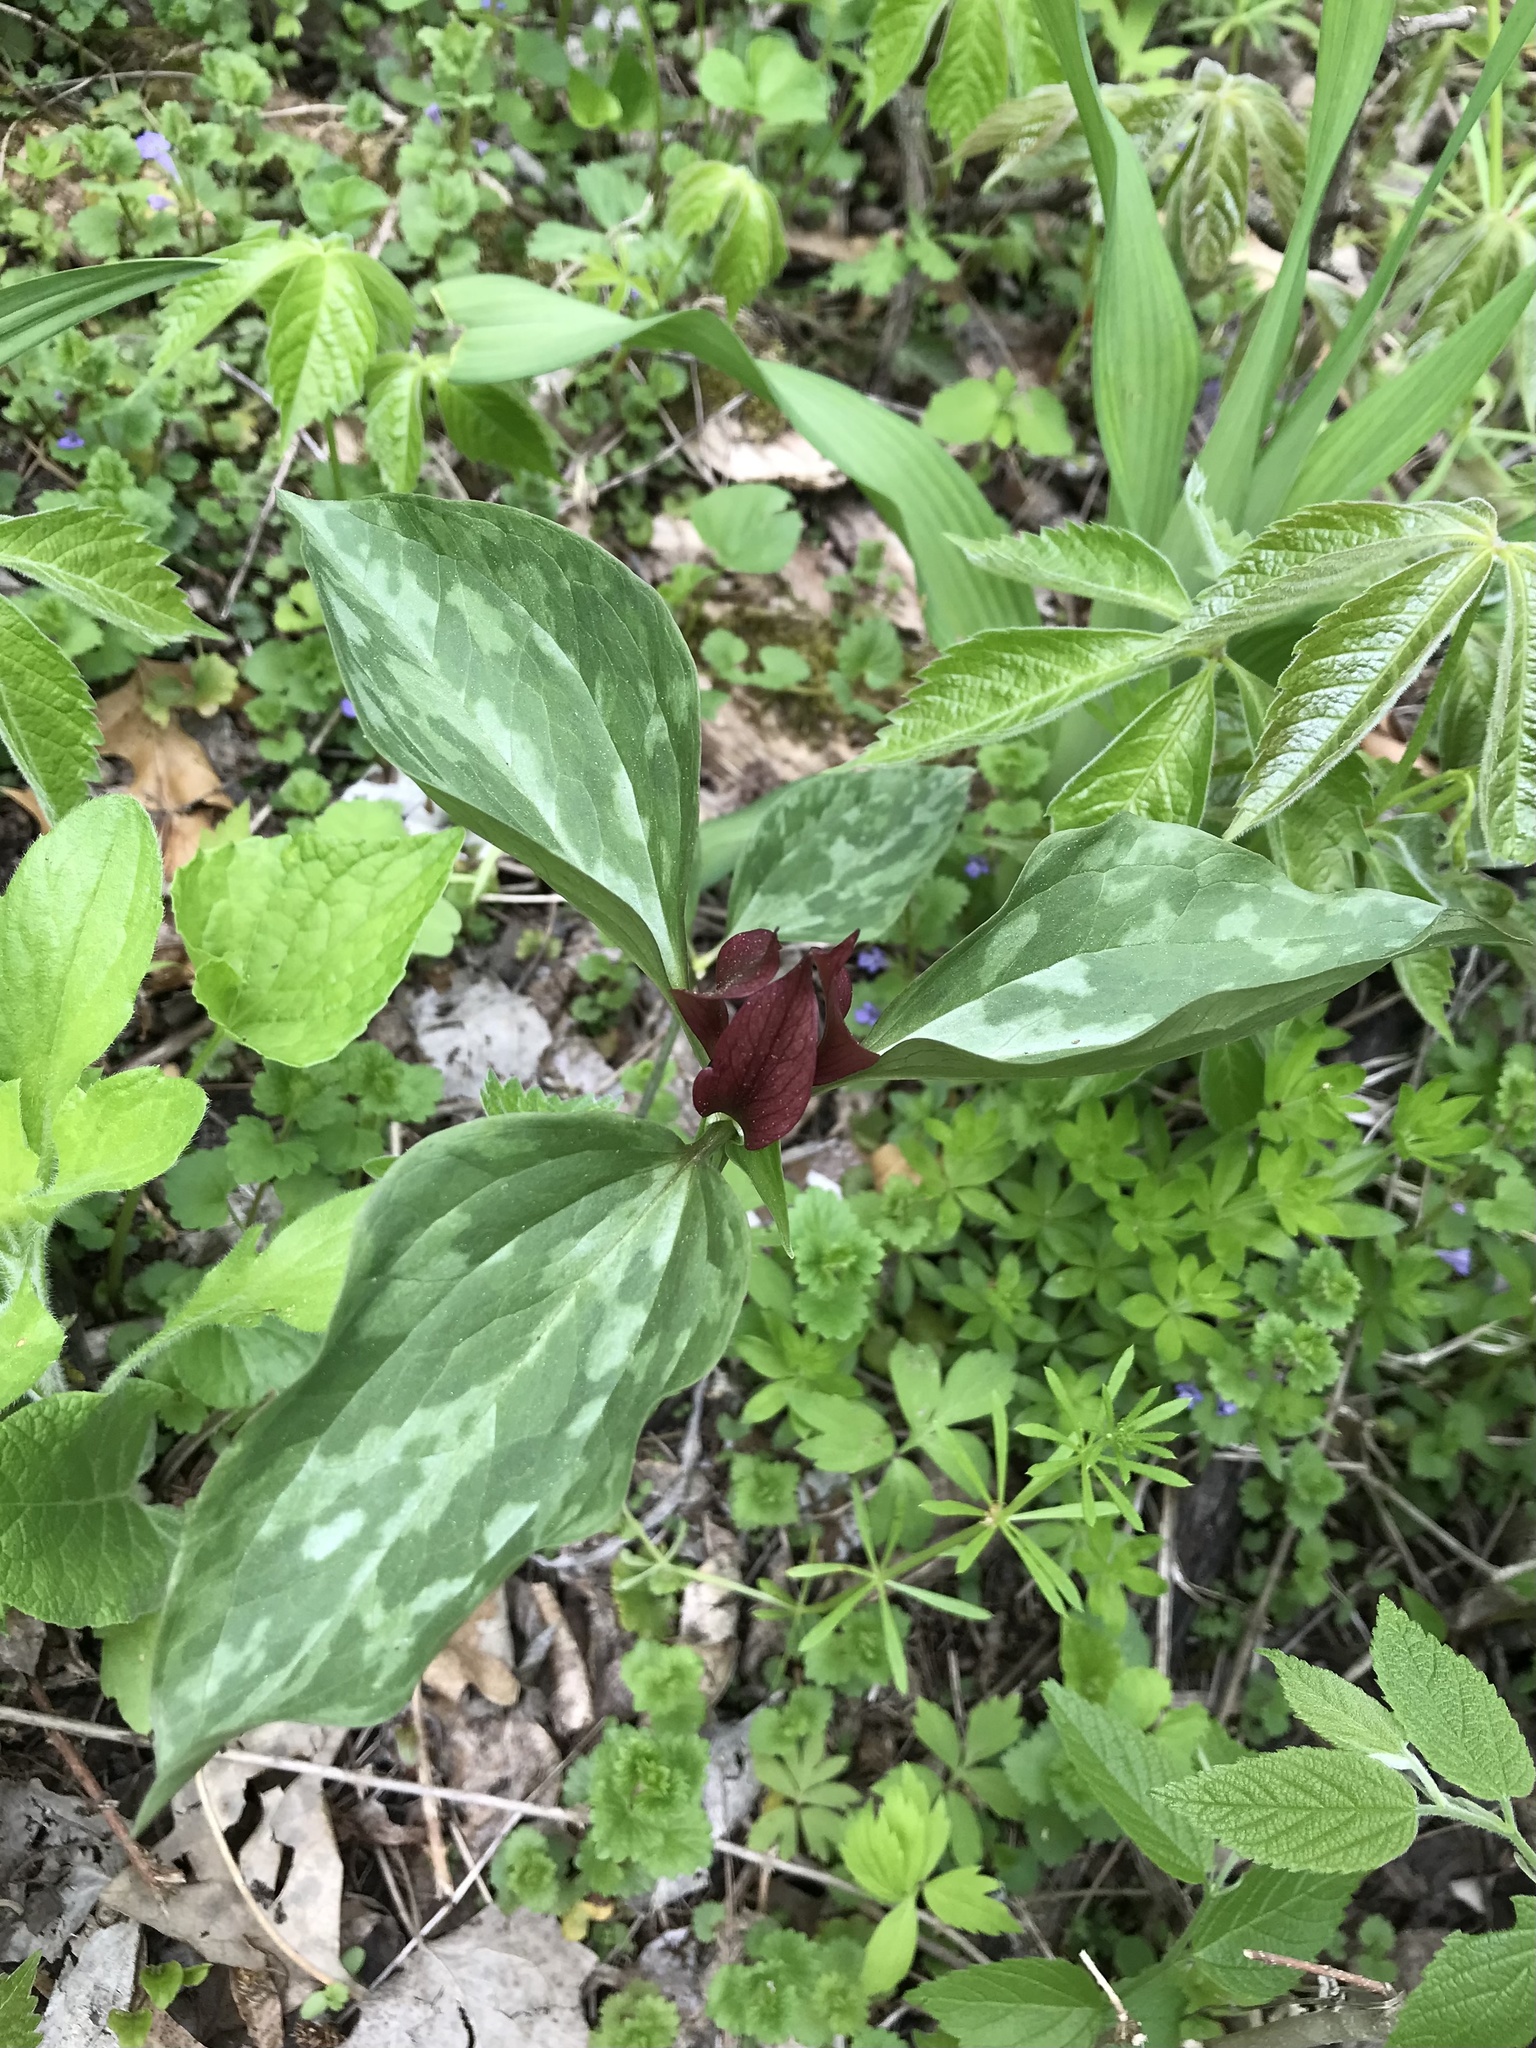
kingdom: Plantae
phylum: Tracheophyta
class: Liliopsida
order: Liliales
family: Melanthiaceae
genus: Trillium
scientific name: Trillium recurvatum
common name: Bloody butcher
